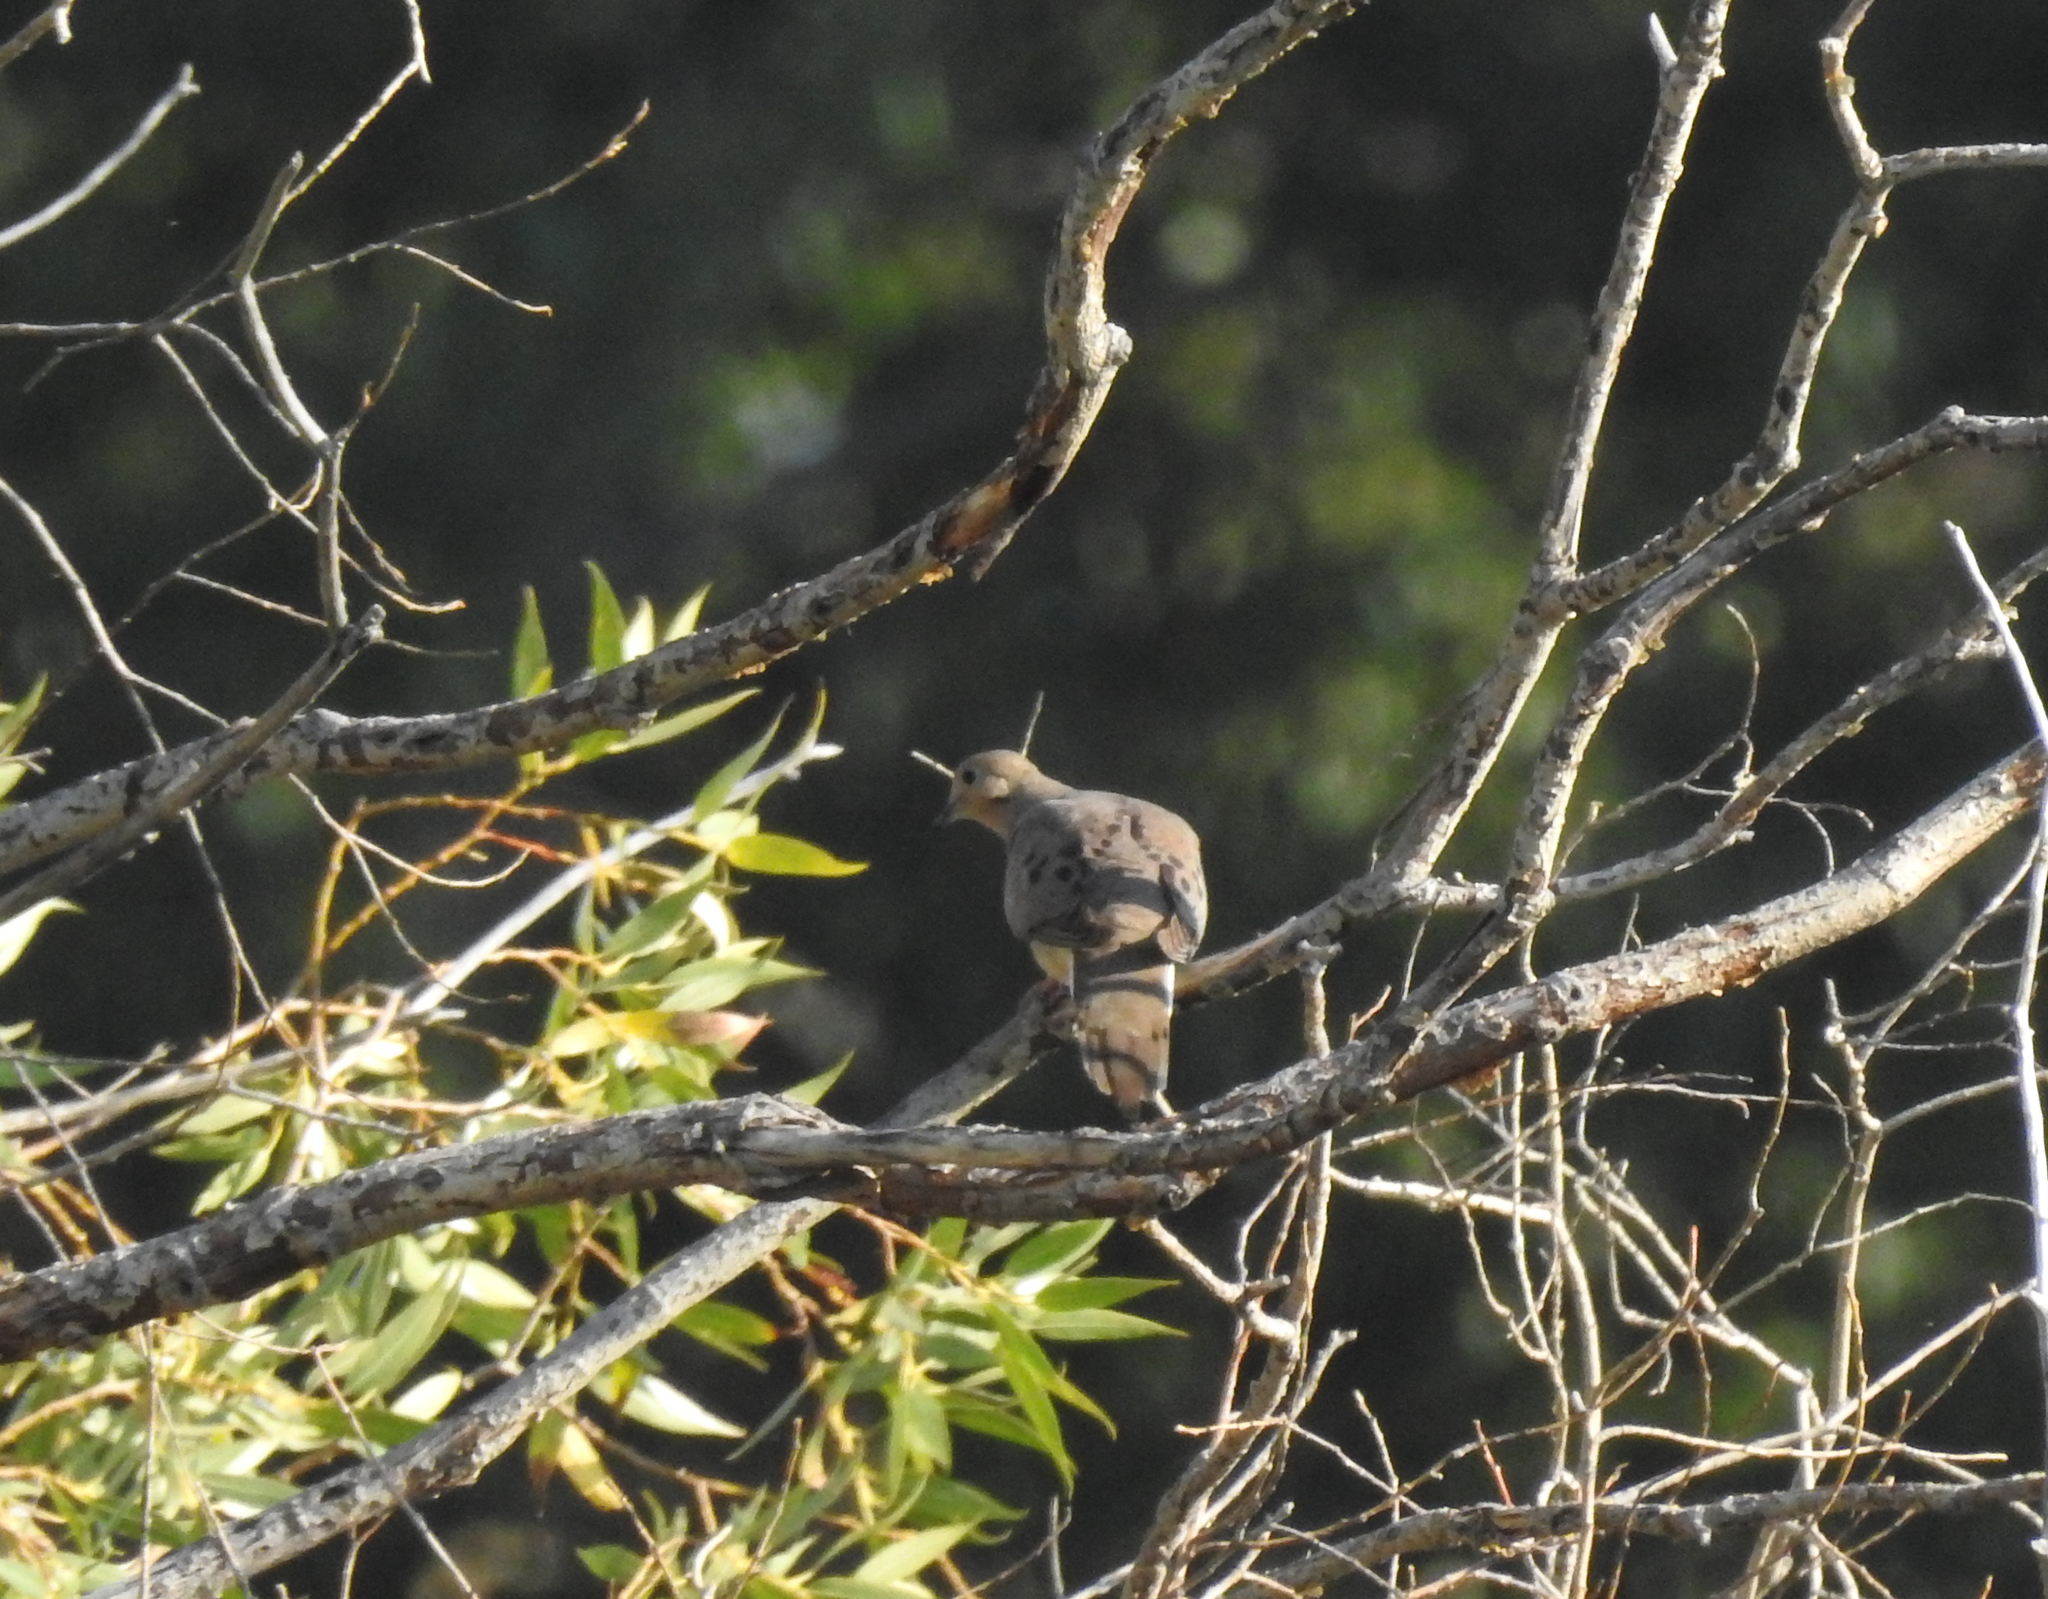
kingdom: Animalia
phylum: Chordata
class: Aves
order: Columbiformes
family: Columbidae
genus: Zenaida
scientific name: Zenaida macroura
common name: Mourning dove
